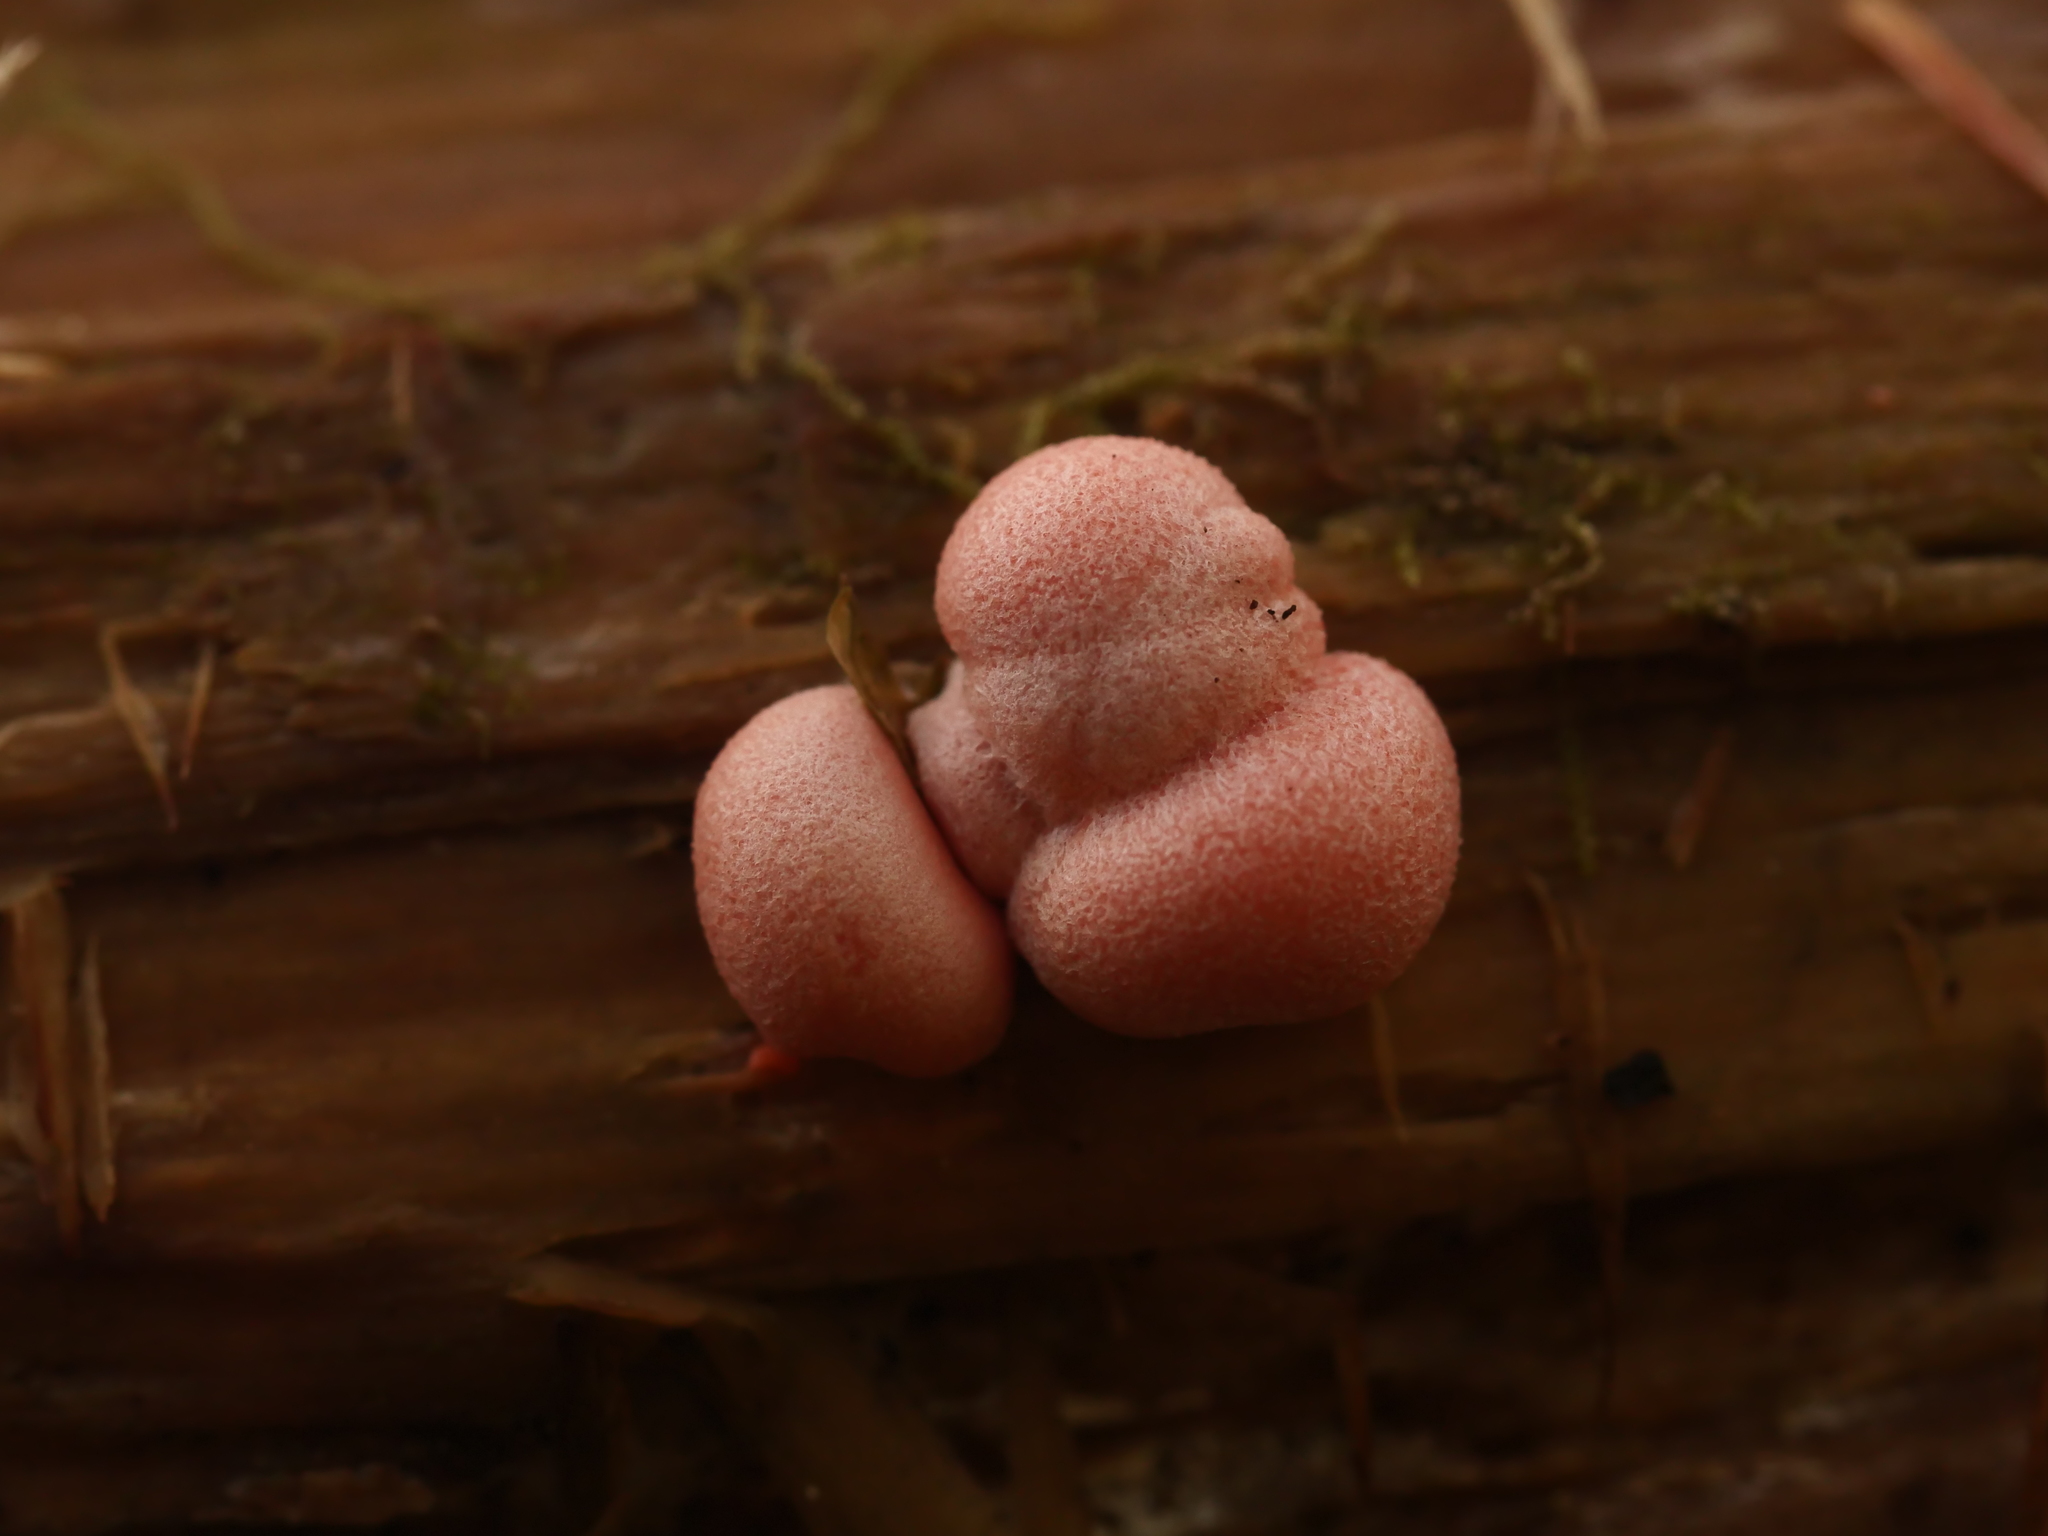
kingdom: Protozoa
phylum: Mycetozoa
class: Myxomycetes
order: Cribrariales
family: Tubiferaceae
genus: Lycogala
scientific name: Lycogala epidendrum
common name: Wolf's milk
